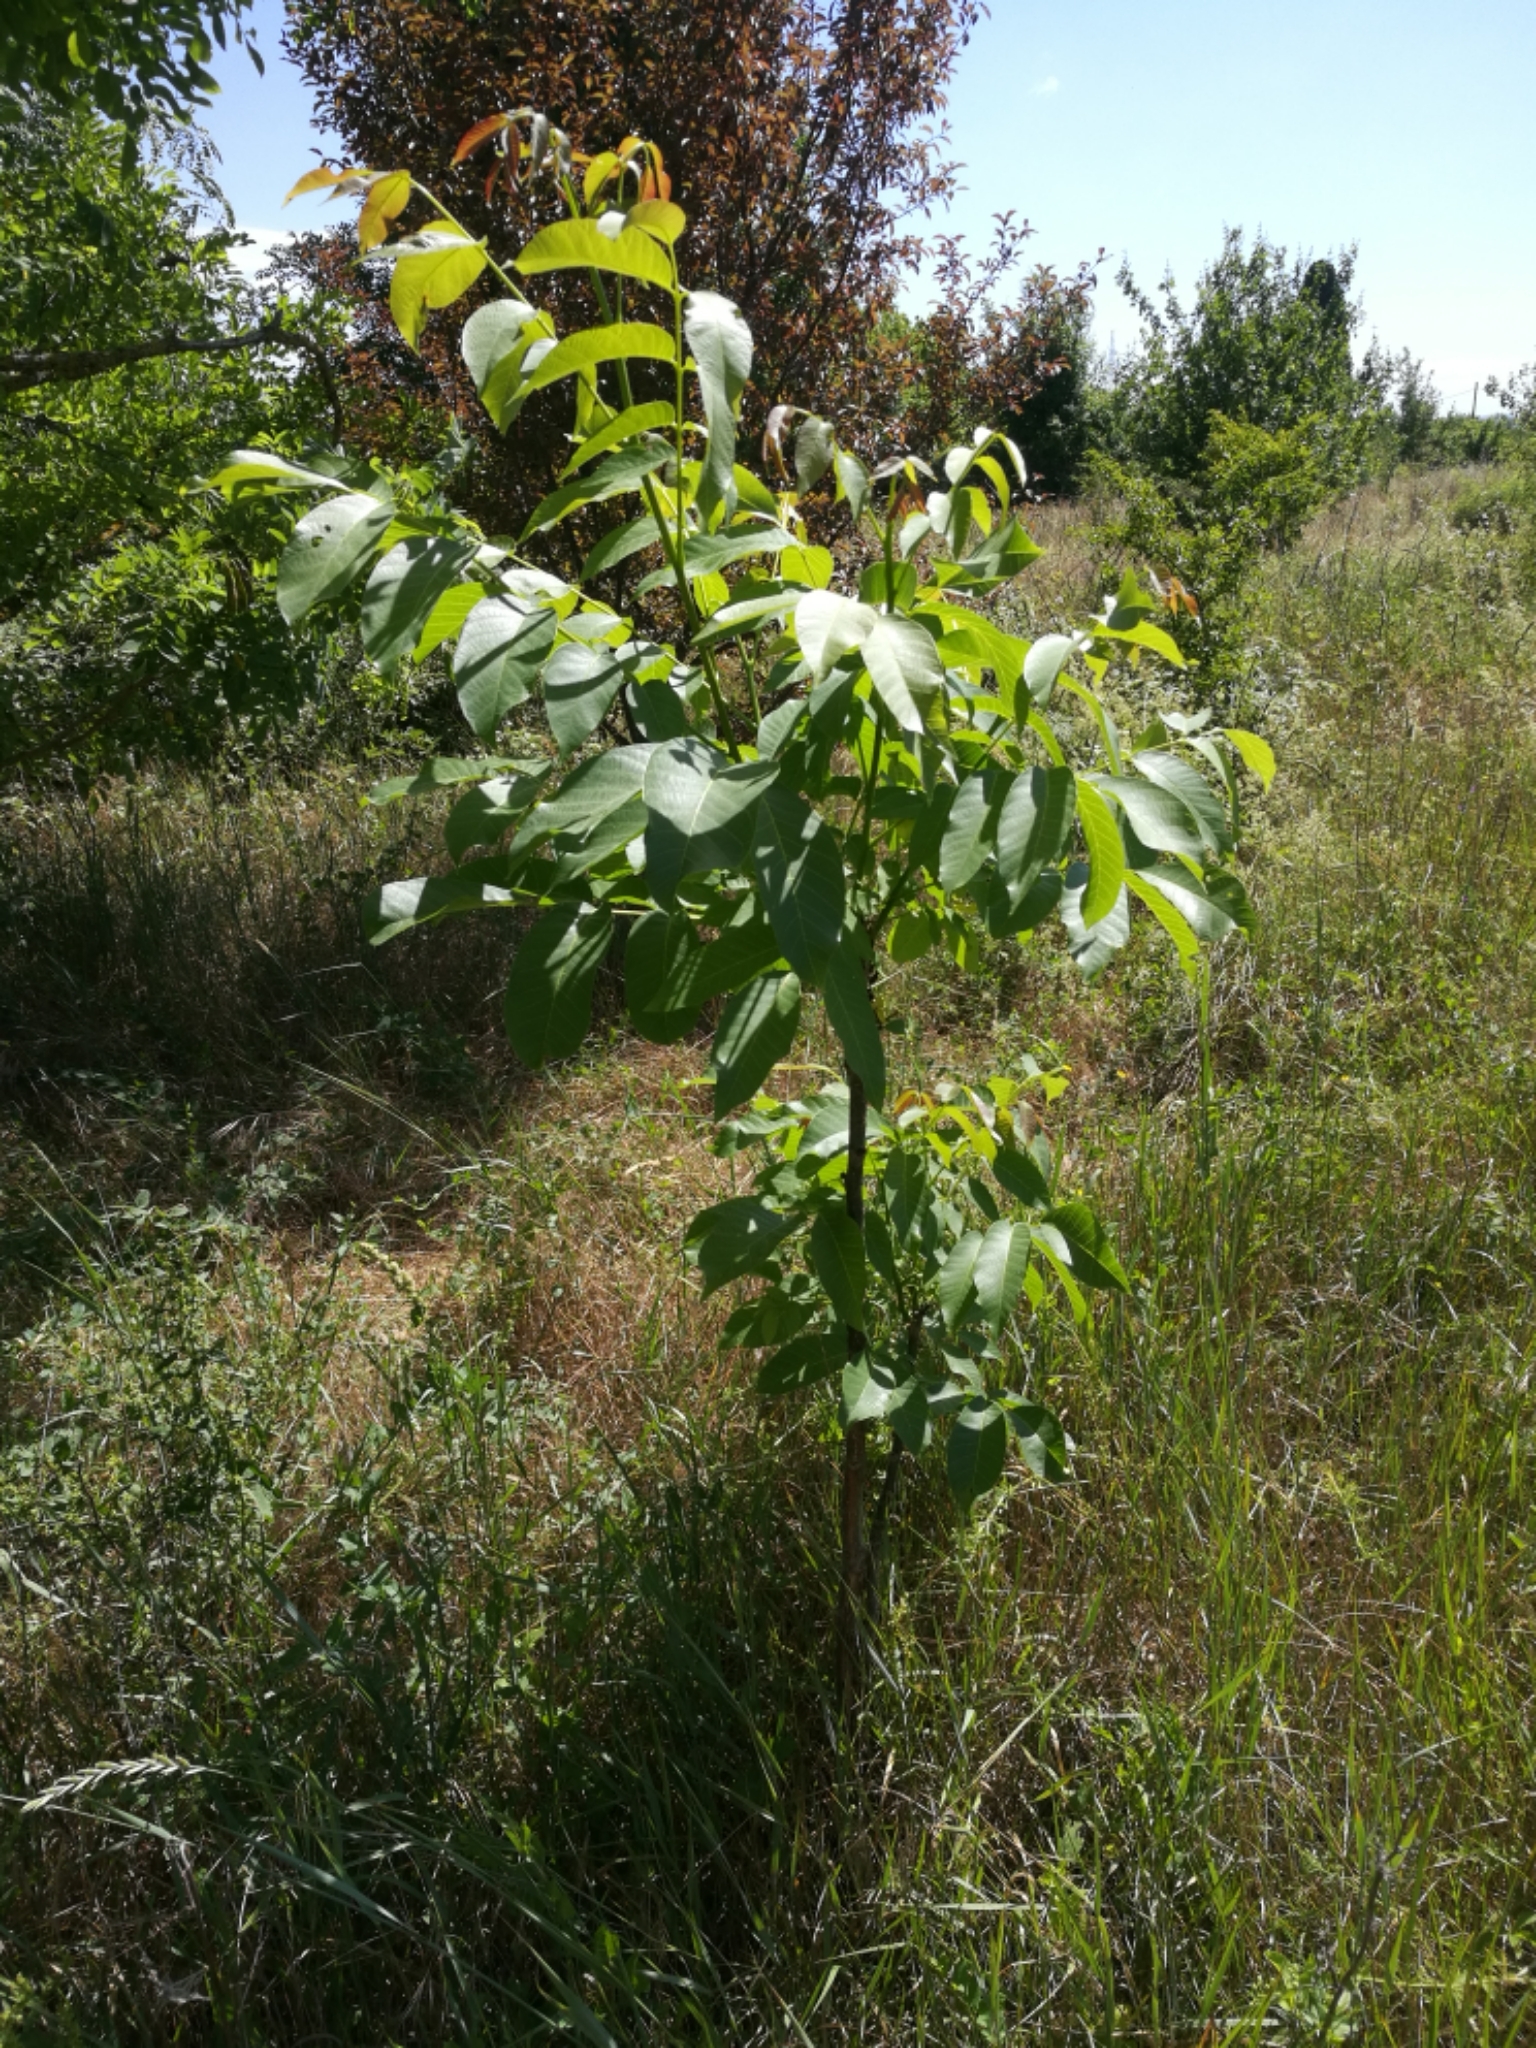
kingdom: Plantae
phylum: Tracheophyta
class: Magnoliopsida
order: Sapindales
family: Simaroubaceae
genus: Ailanthus
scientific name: Ailanthus altissima
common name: Tree-of-heaven
